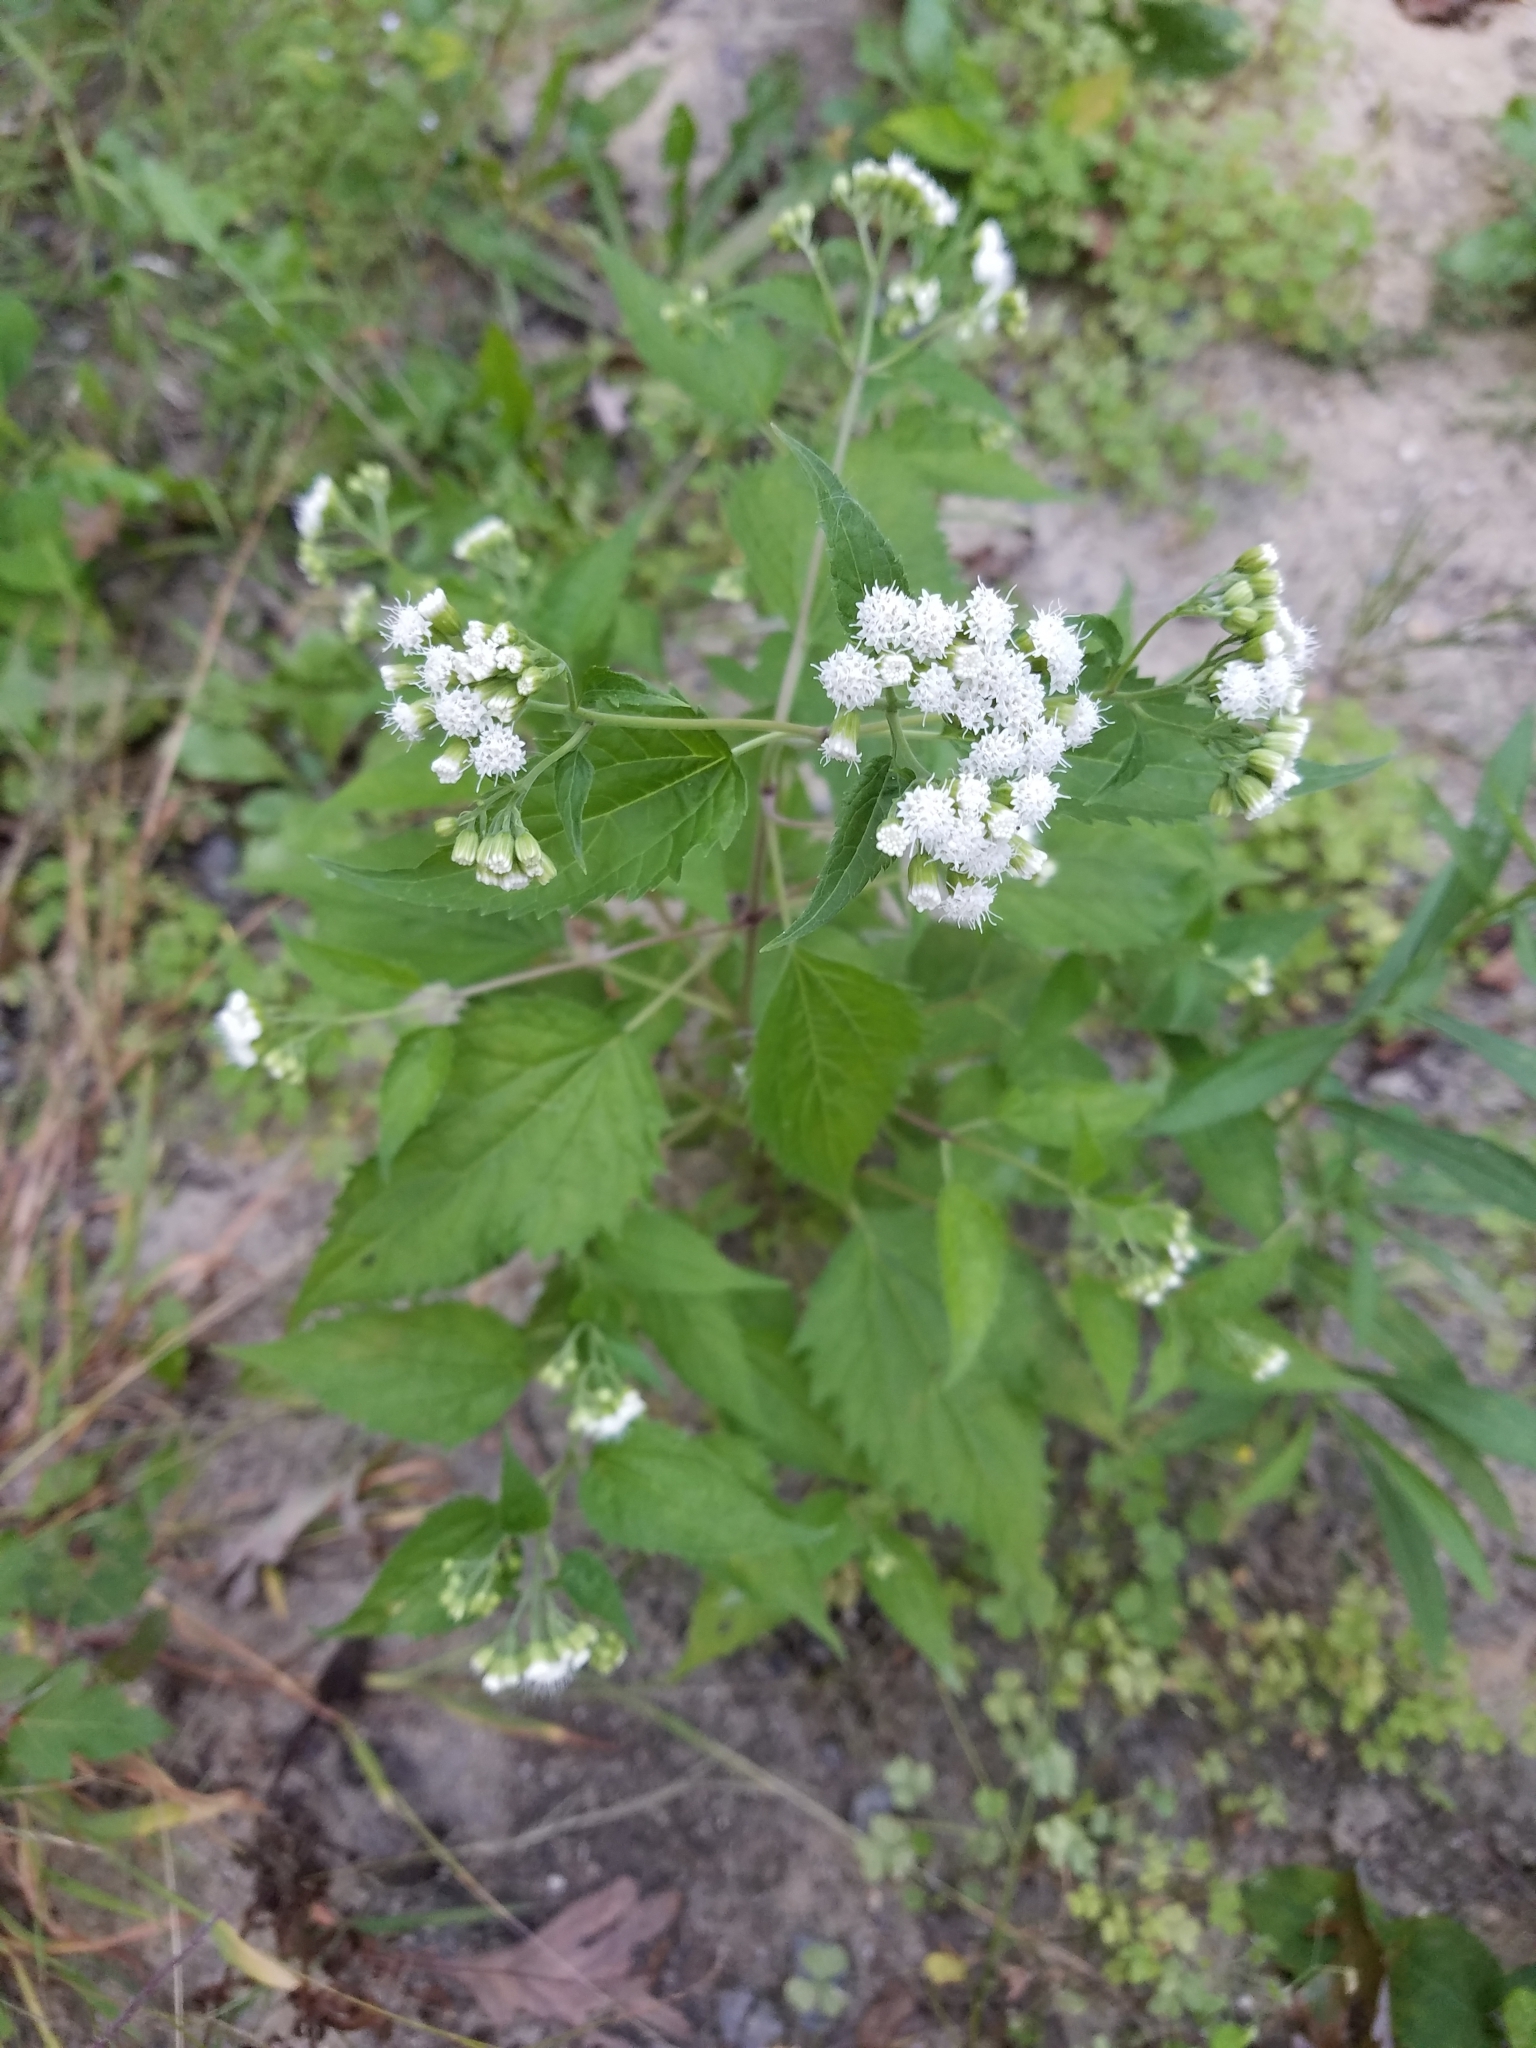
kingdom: Plantae
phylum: Tracheophyta
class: Magnoliopsida
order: Asterales
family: Asteraceae
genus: Ageratina
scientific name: Ageratina altissima
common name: White snakeroot
